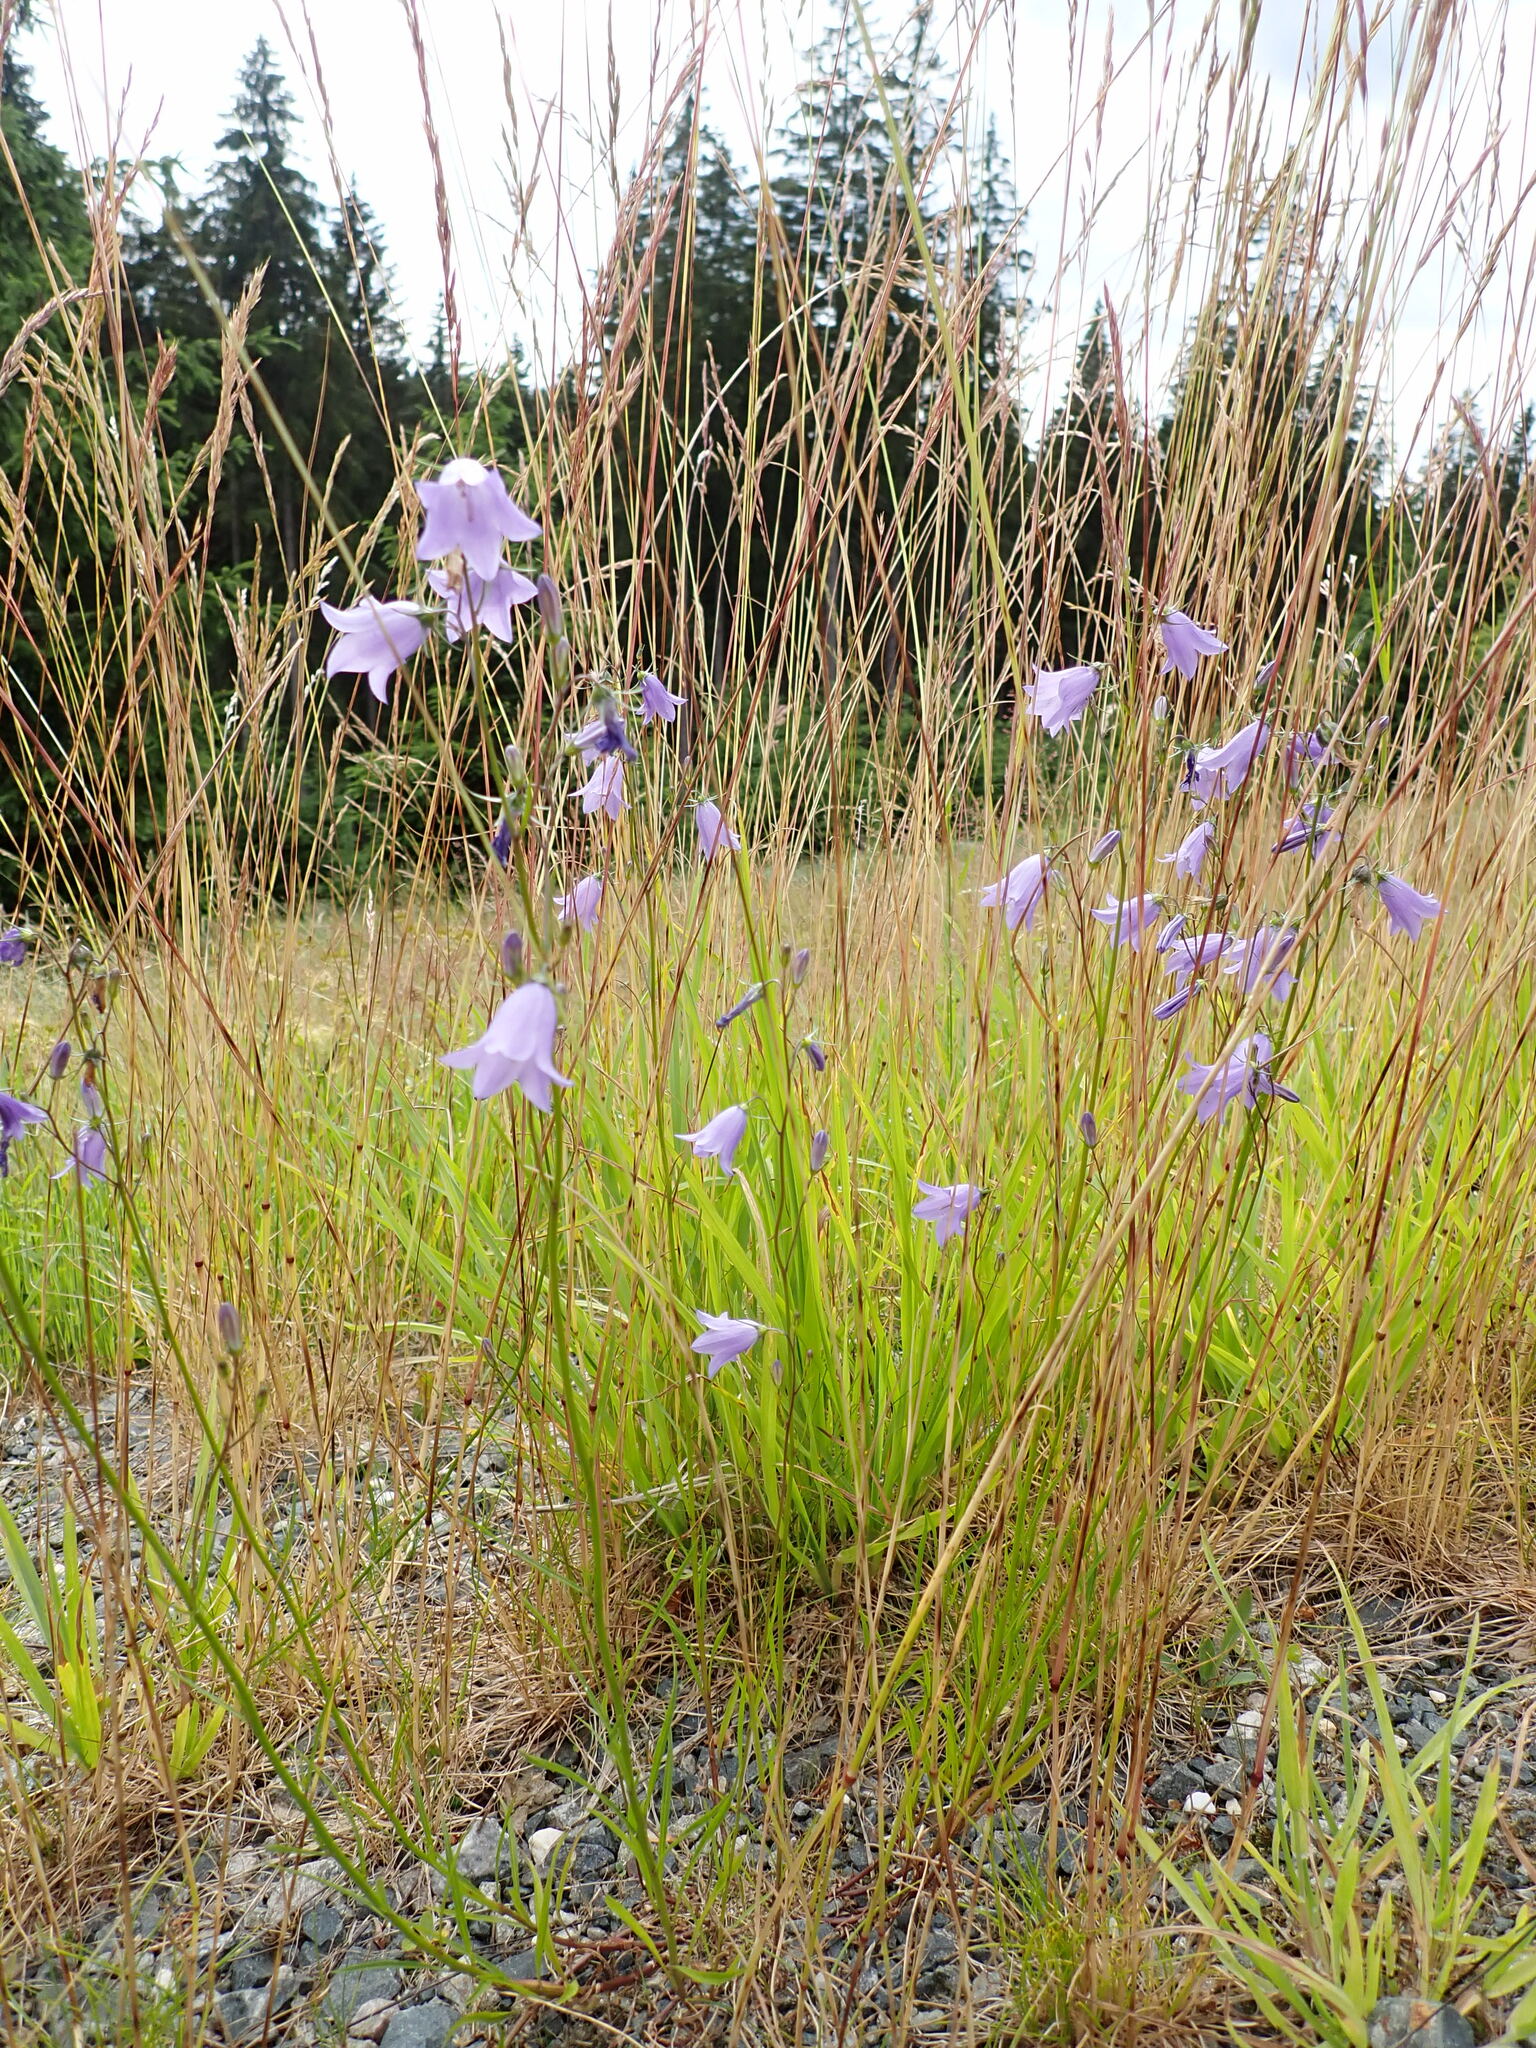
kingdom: Plantae
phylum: Tracheophyta
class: Magnoliopsida
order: Asterales
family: Campanulaceae
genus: Campanula
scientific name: Campanula rotundifolia
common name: Harebell
